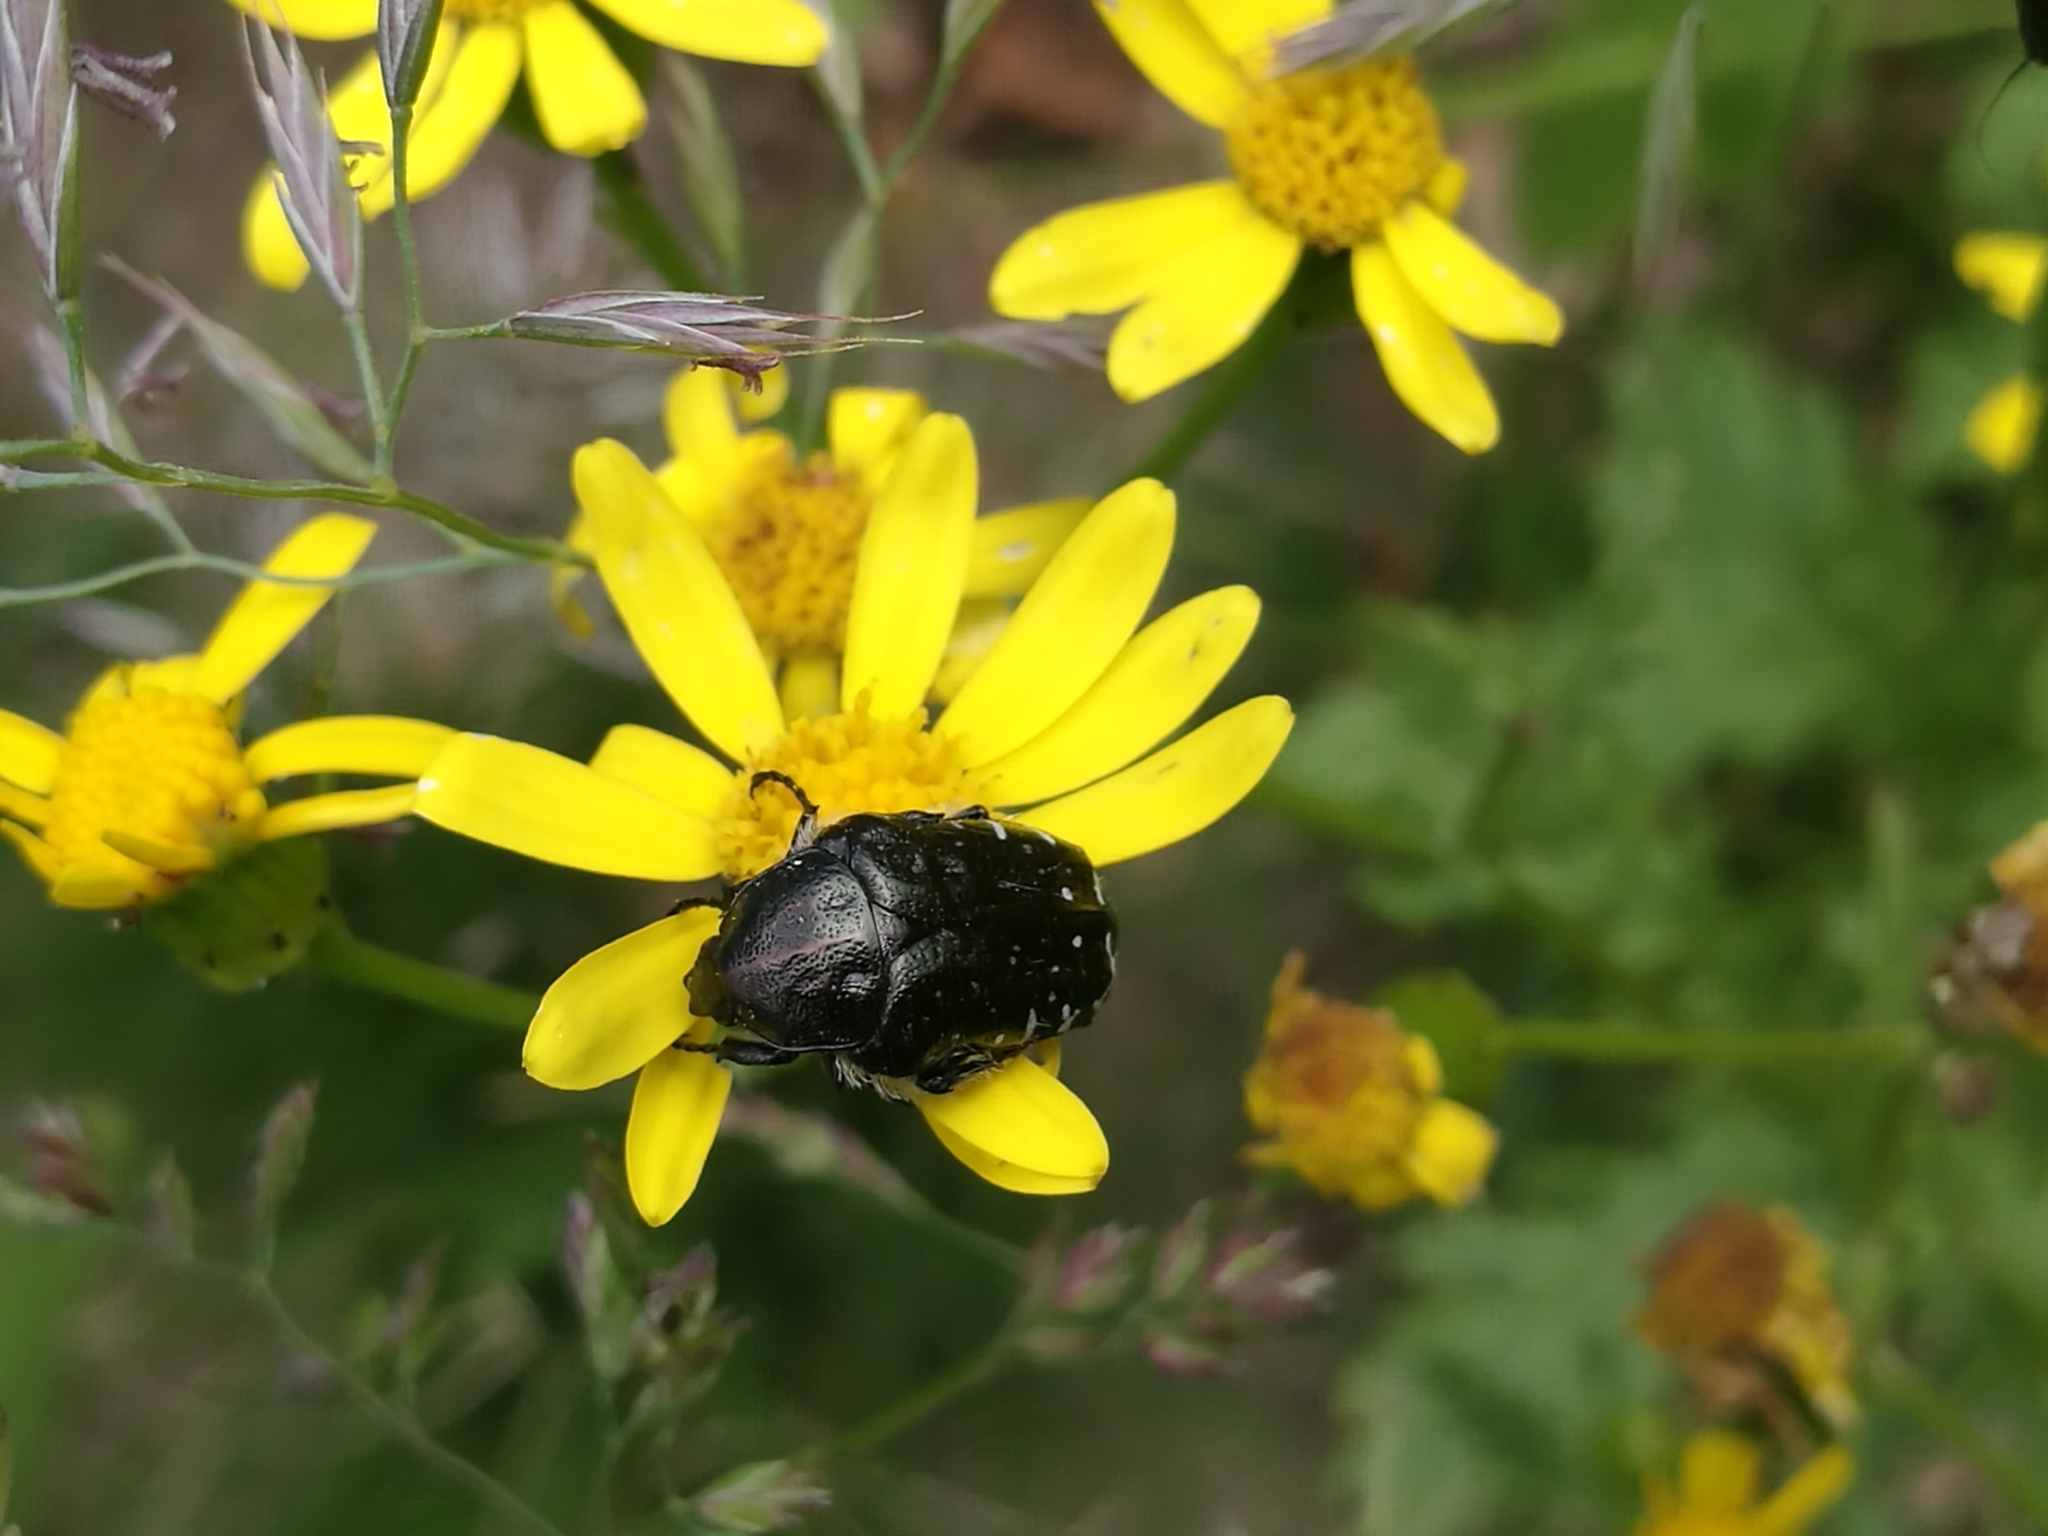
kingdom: Animalia
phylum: Arthropoda
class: Insecta
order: Coleoptera
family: Scarabaeidae
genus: Oxythyrea
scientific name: Oxythyrea funesta
